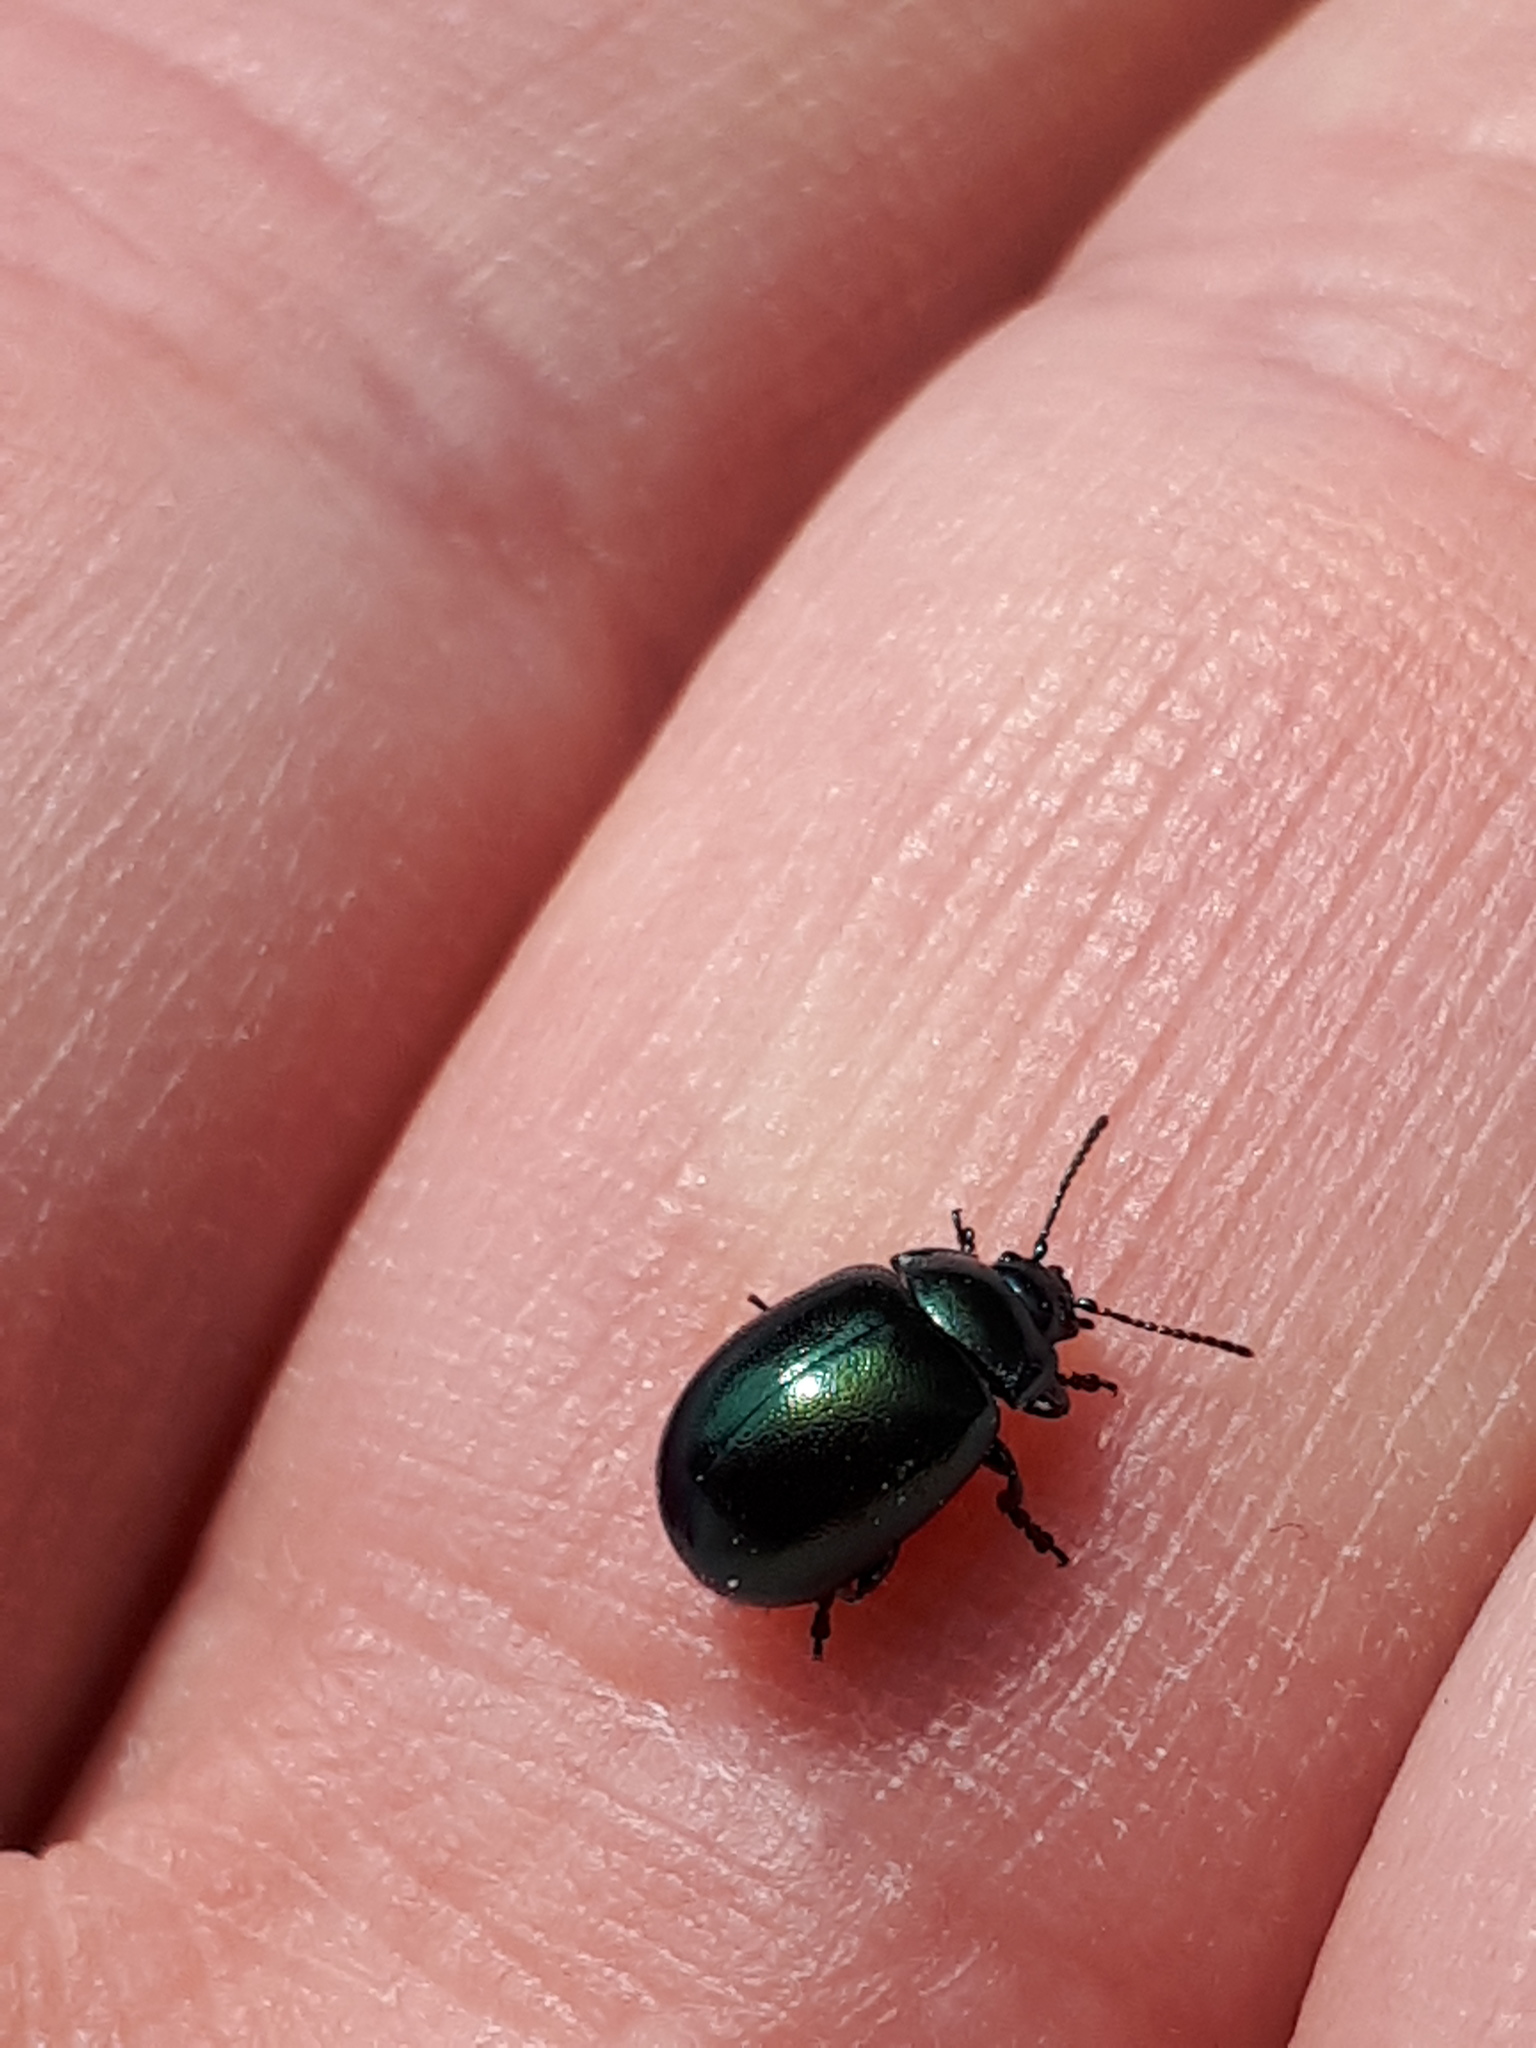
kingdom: Animalia
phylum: Arthropoda
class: Insecta
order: Coleoptera
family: Chrysomelidae
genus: Chrysolina
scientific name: Chrysolina varians
